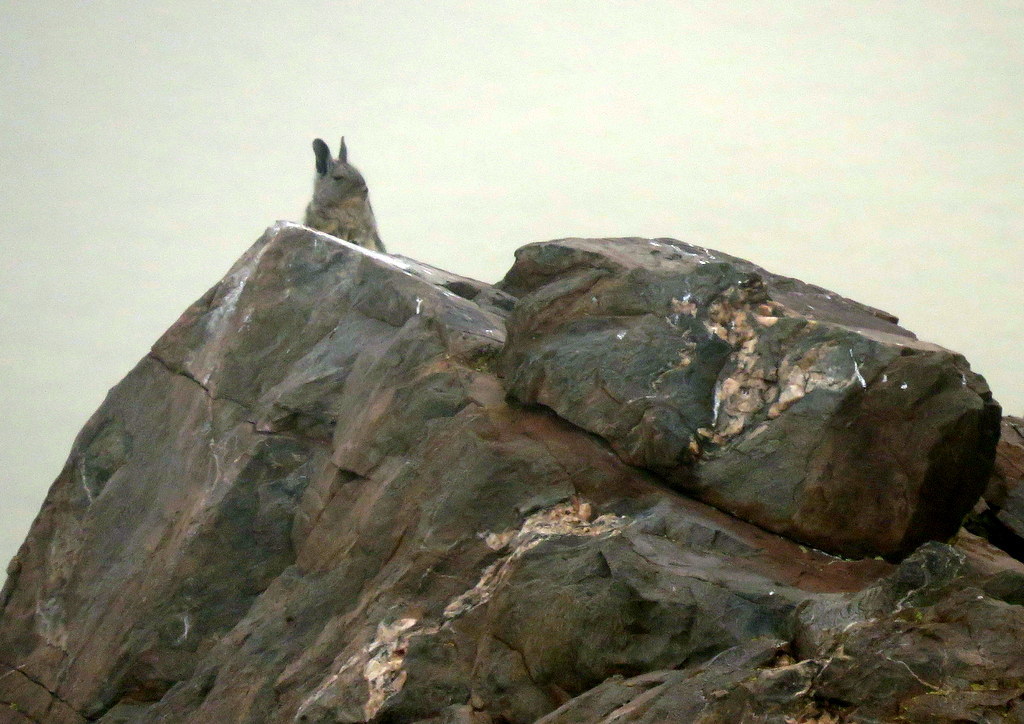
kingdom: Animalia
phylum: Chordata
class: Mammalia
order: Rodentia
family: Chinchillidae
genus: Lagidium
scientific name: Lagidium viscacia
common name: Southern viscacha
